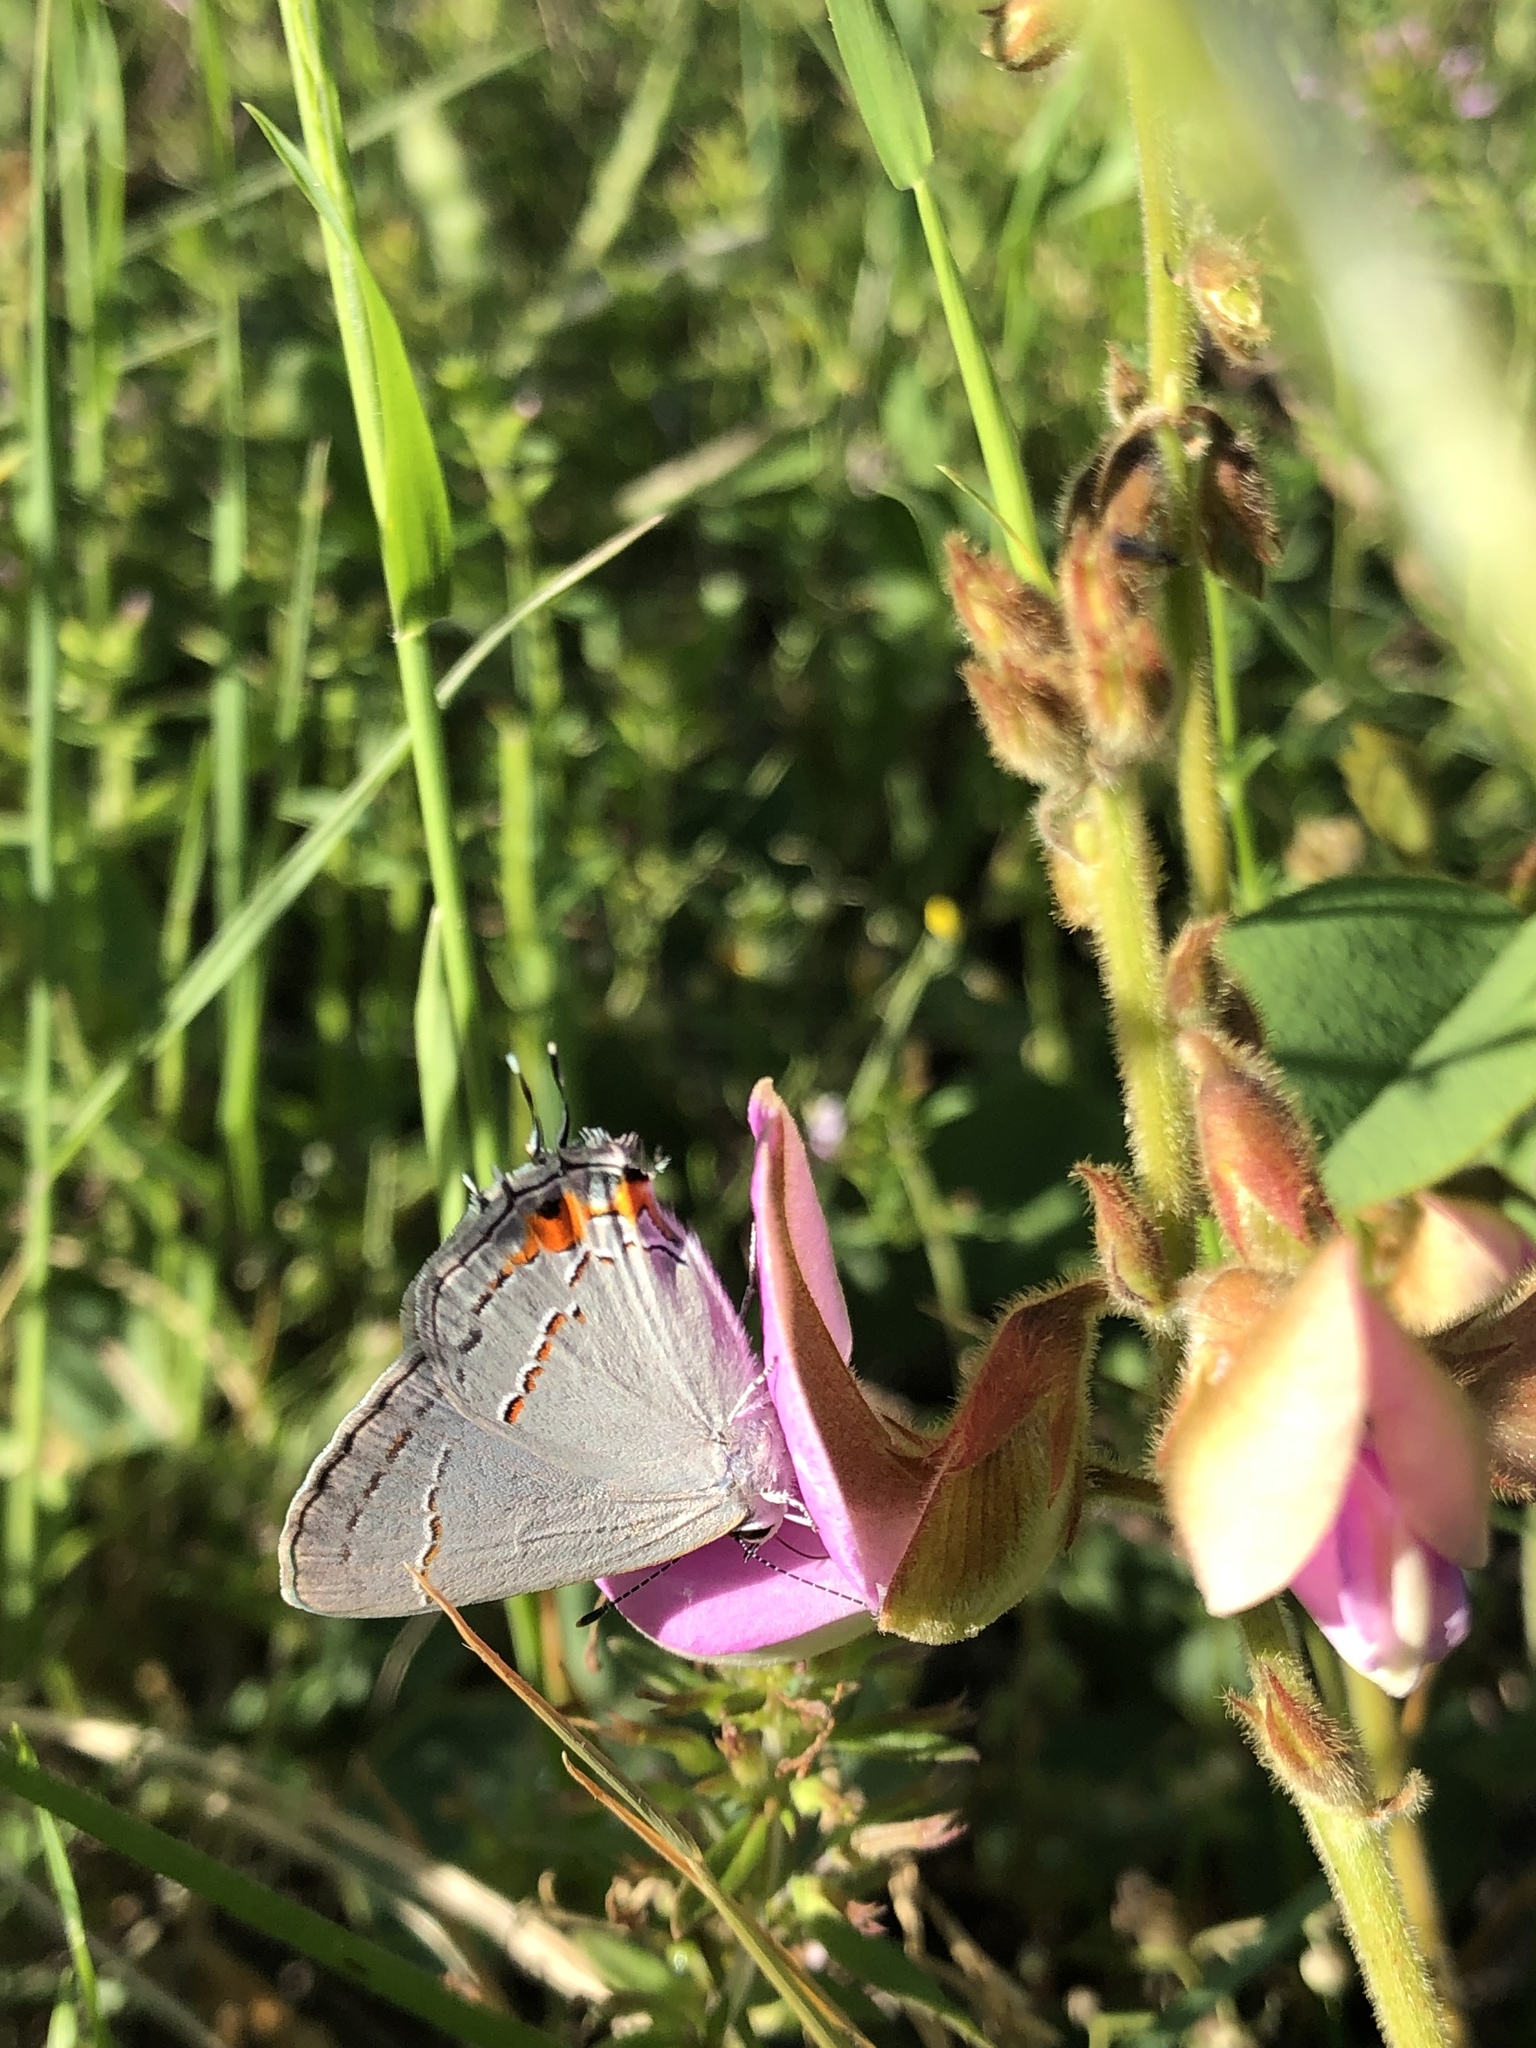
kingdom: Animalia
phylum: Arthropoda
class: Insecta
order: Lepidoptera
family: Lycaenidae
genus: Strymon
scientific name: Strymon melinus
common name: Gray hairstreak
